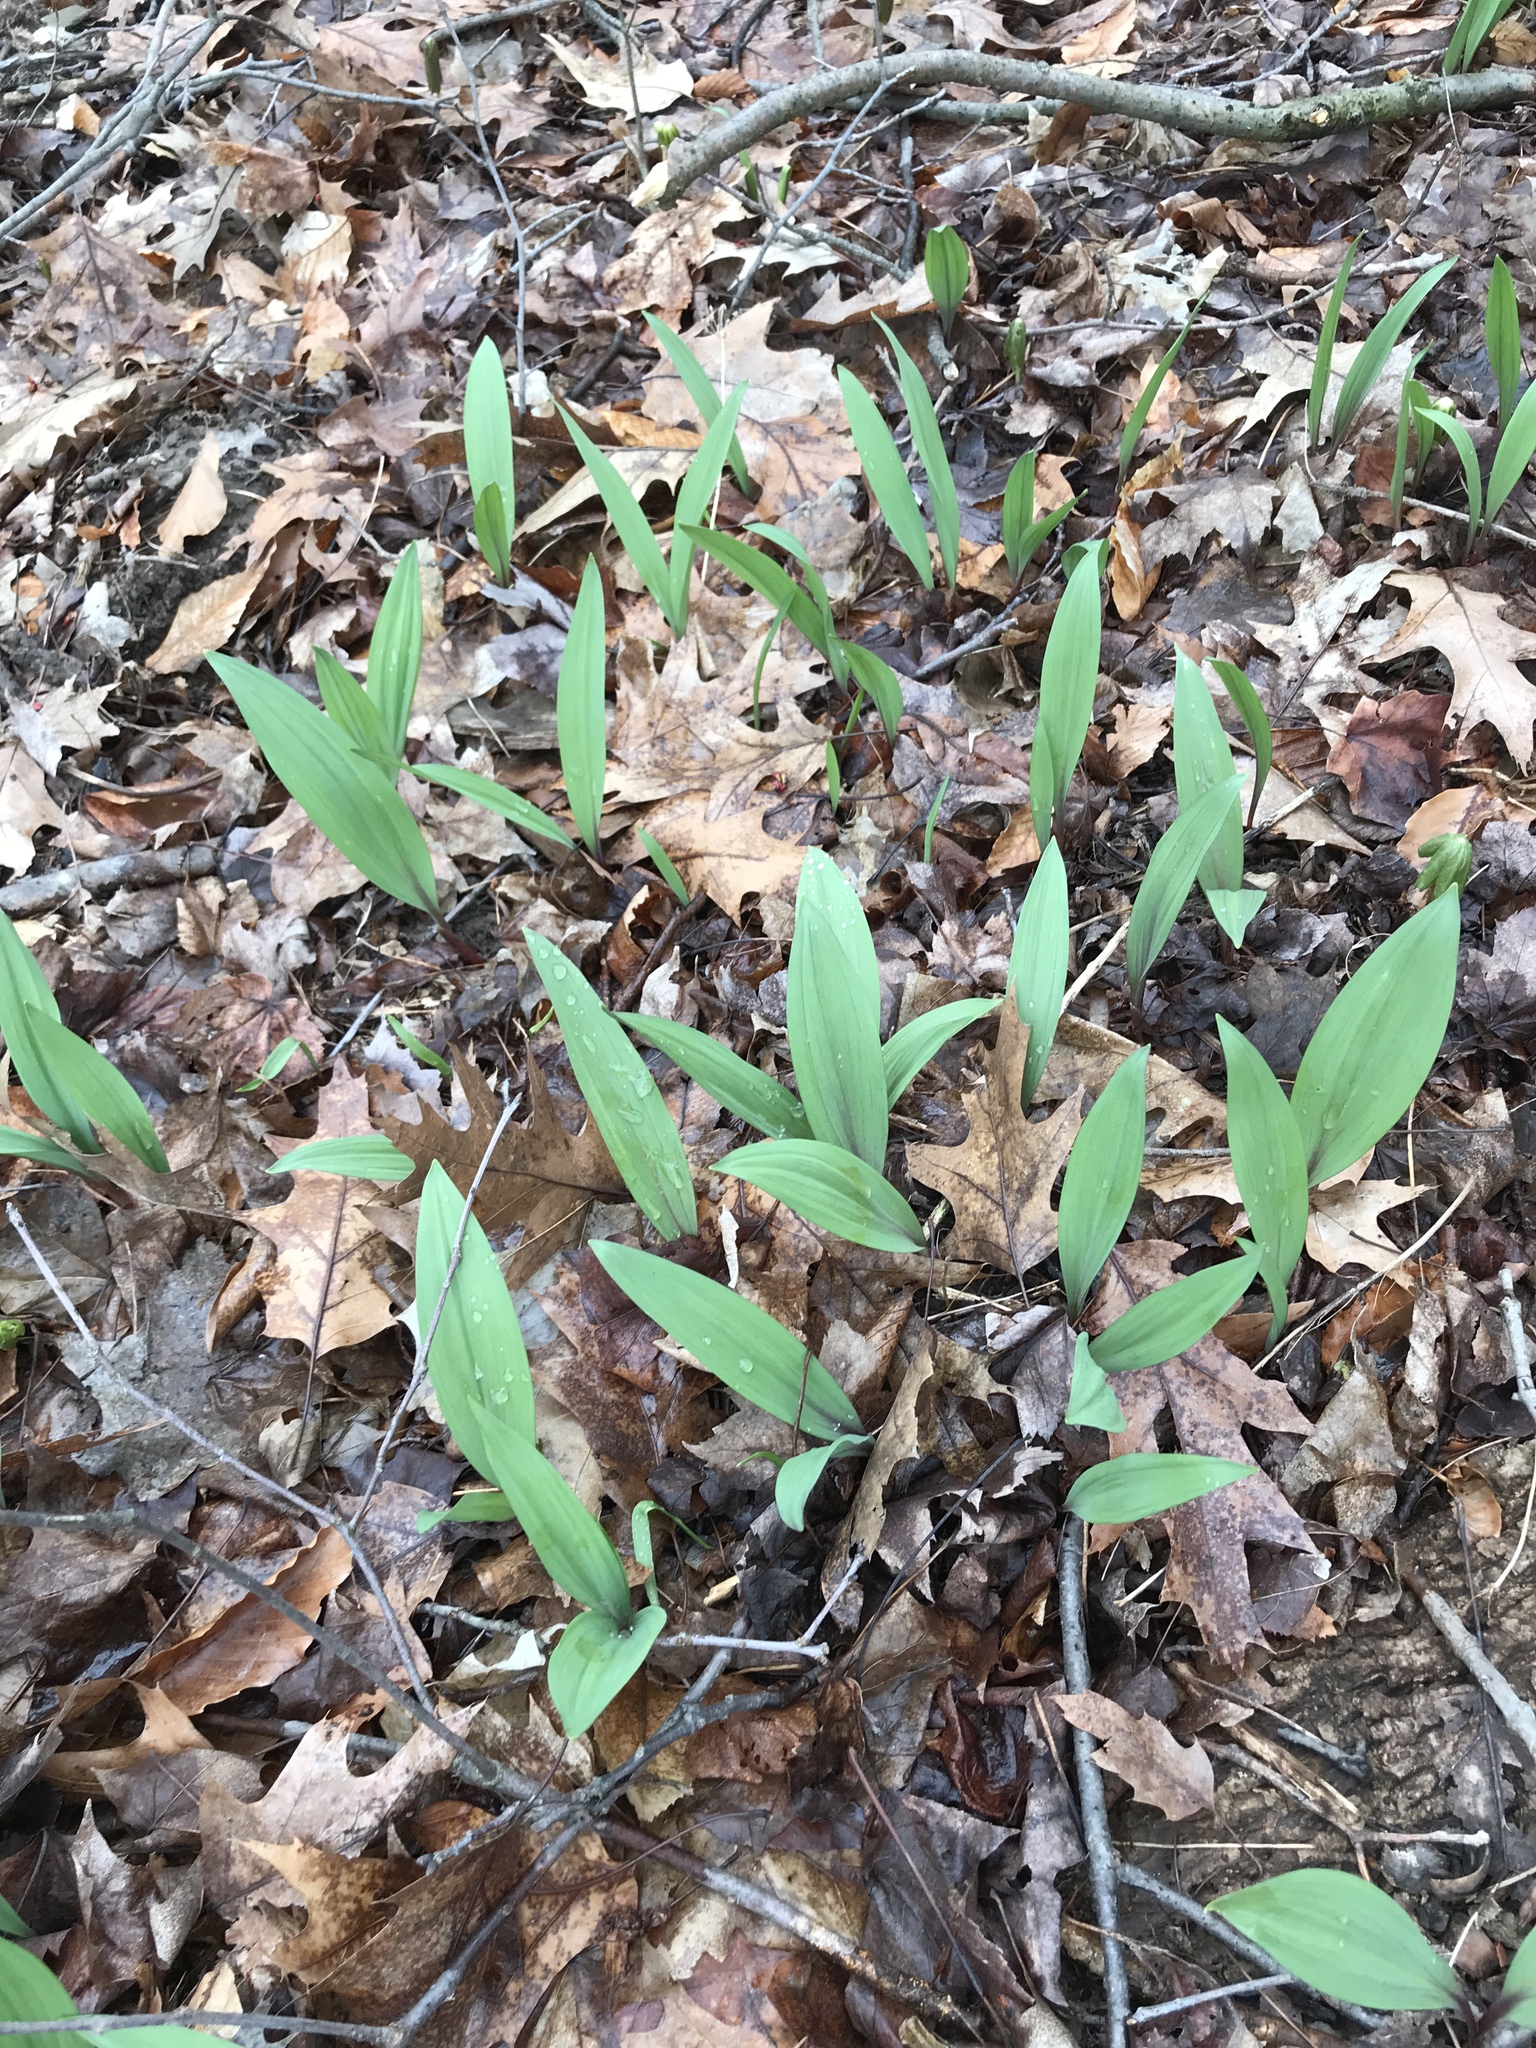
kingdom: Plantae
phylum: Tracheophyta
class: Liliopsida
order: Asparagales
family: Amaryllidaceae
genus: Allium
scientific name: Allium tricoccum
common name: Ramp
